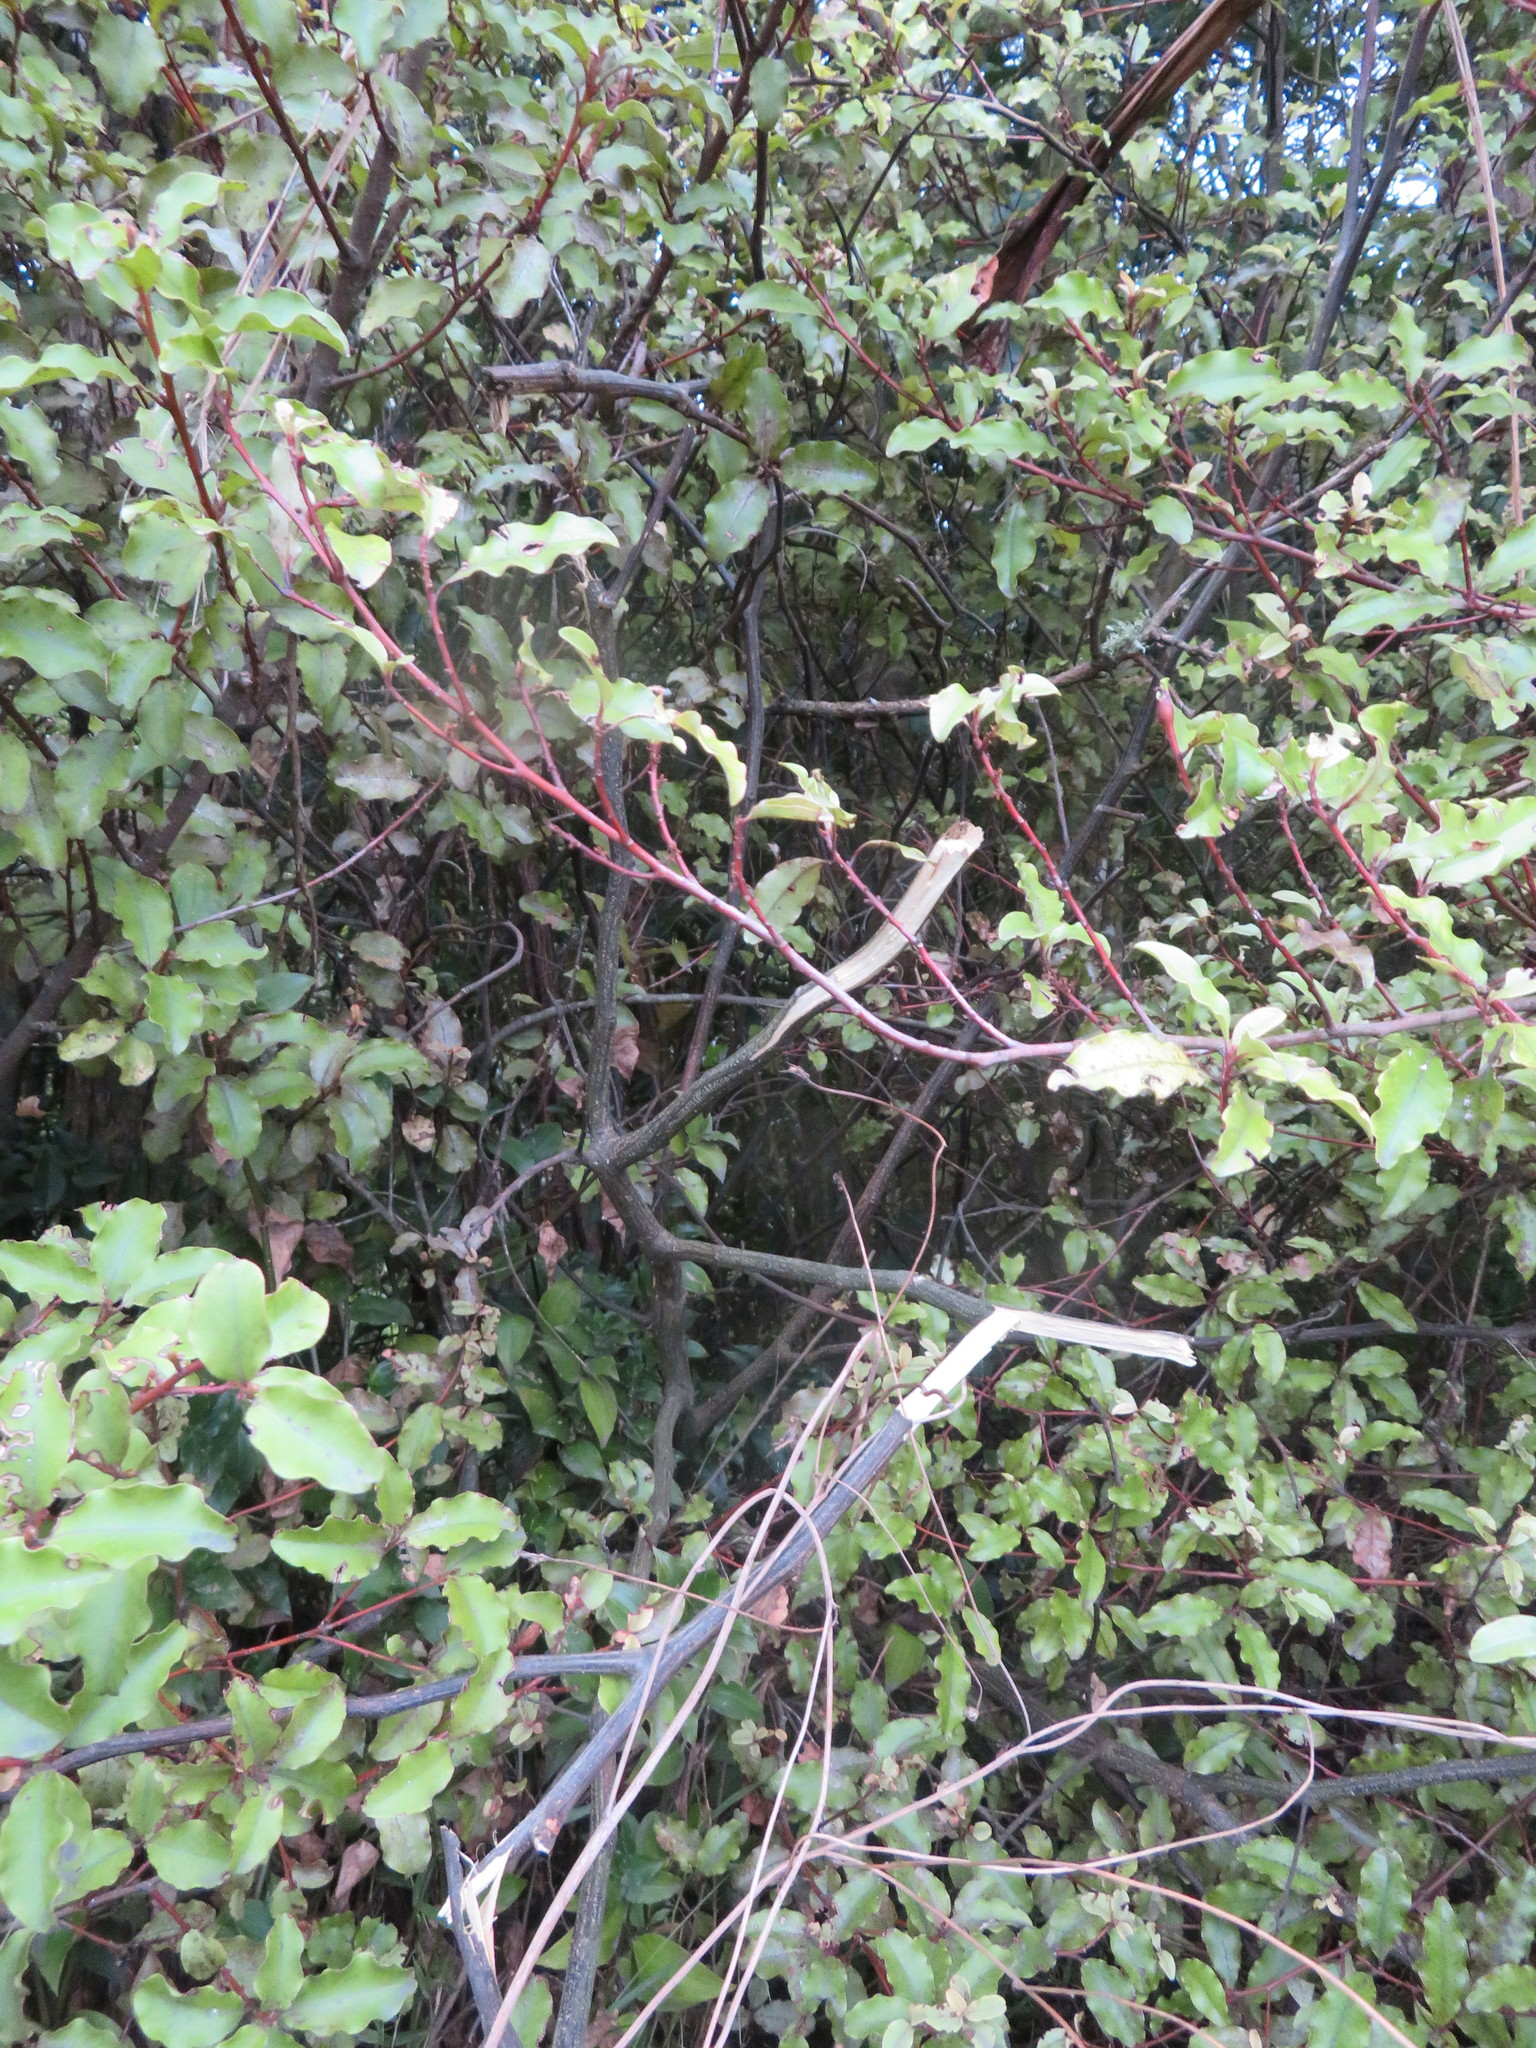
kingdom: Plantae
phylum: Tracheophyta
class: Magnoliopsida
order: Fabales
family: Fabaceae
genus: Paraserianthes
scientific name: Paraserianthes lophantha
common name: Plume albizia
